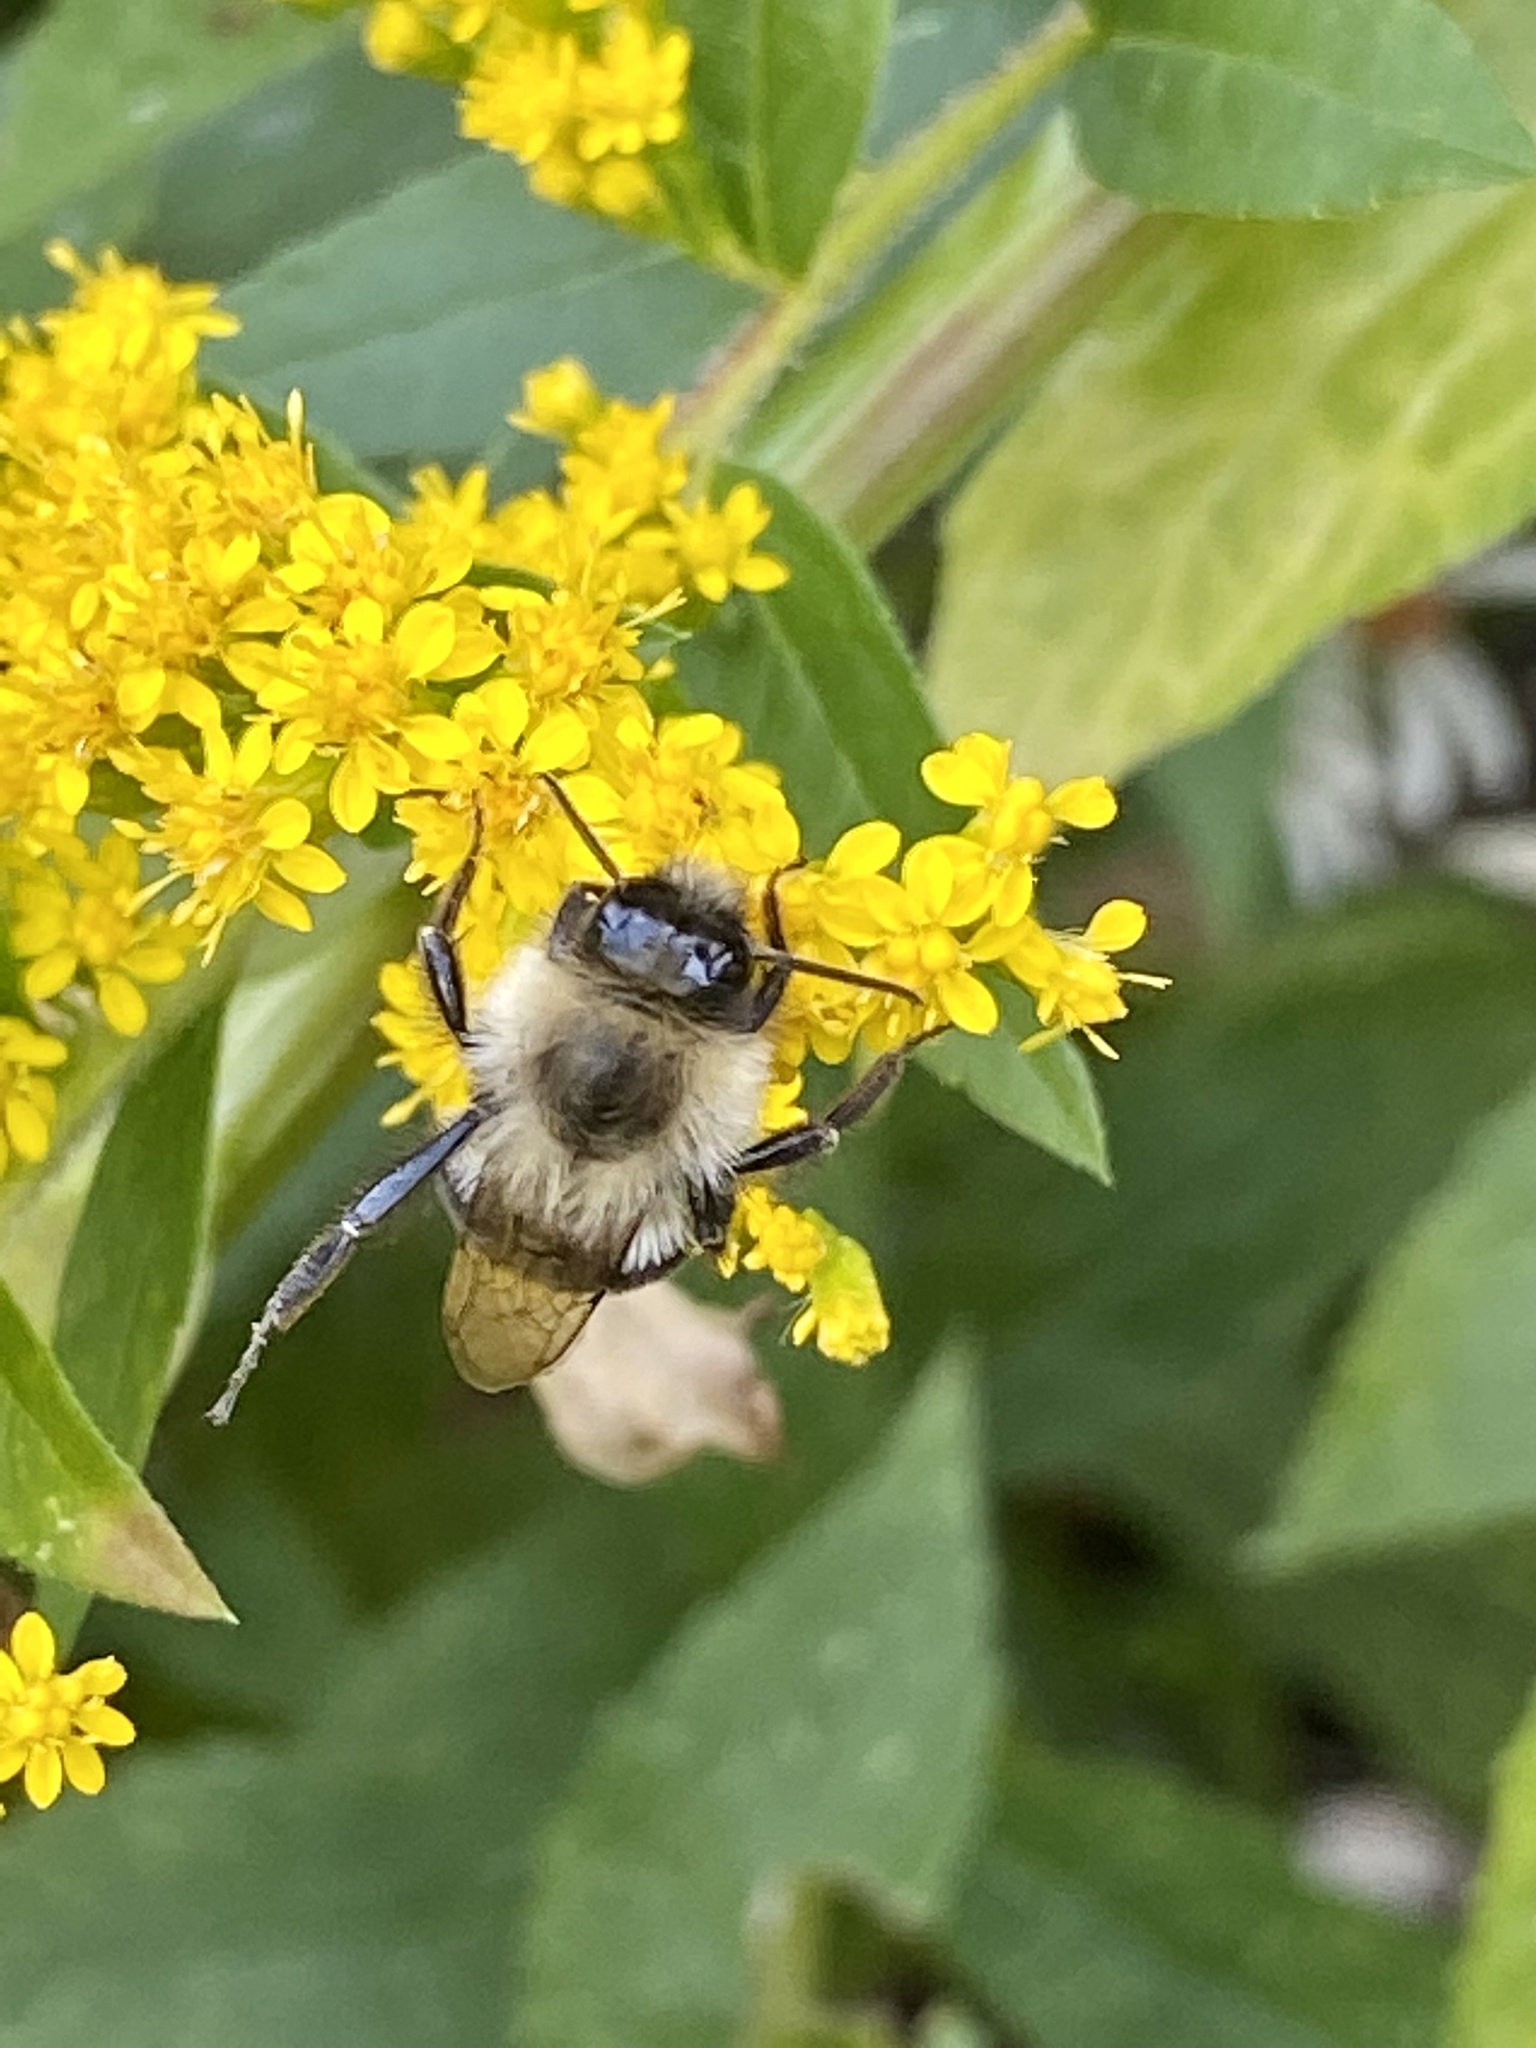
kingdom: Animalia
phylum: Arthropoda
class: Insecta
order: Hymenoptera
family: Apidae
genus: Bombus
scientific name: Bombus impatiens
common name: Common eastern bumble bee
